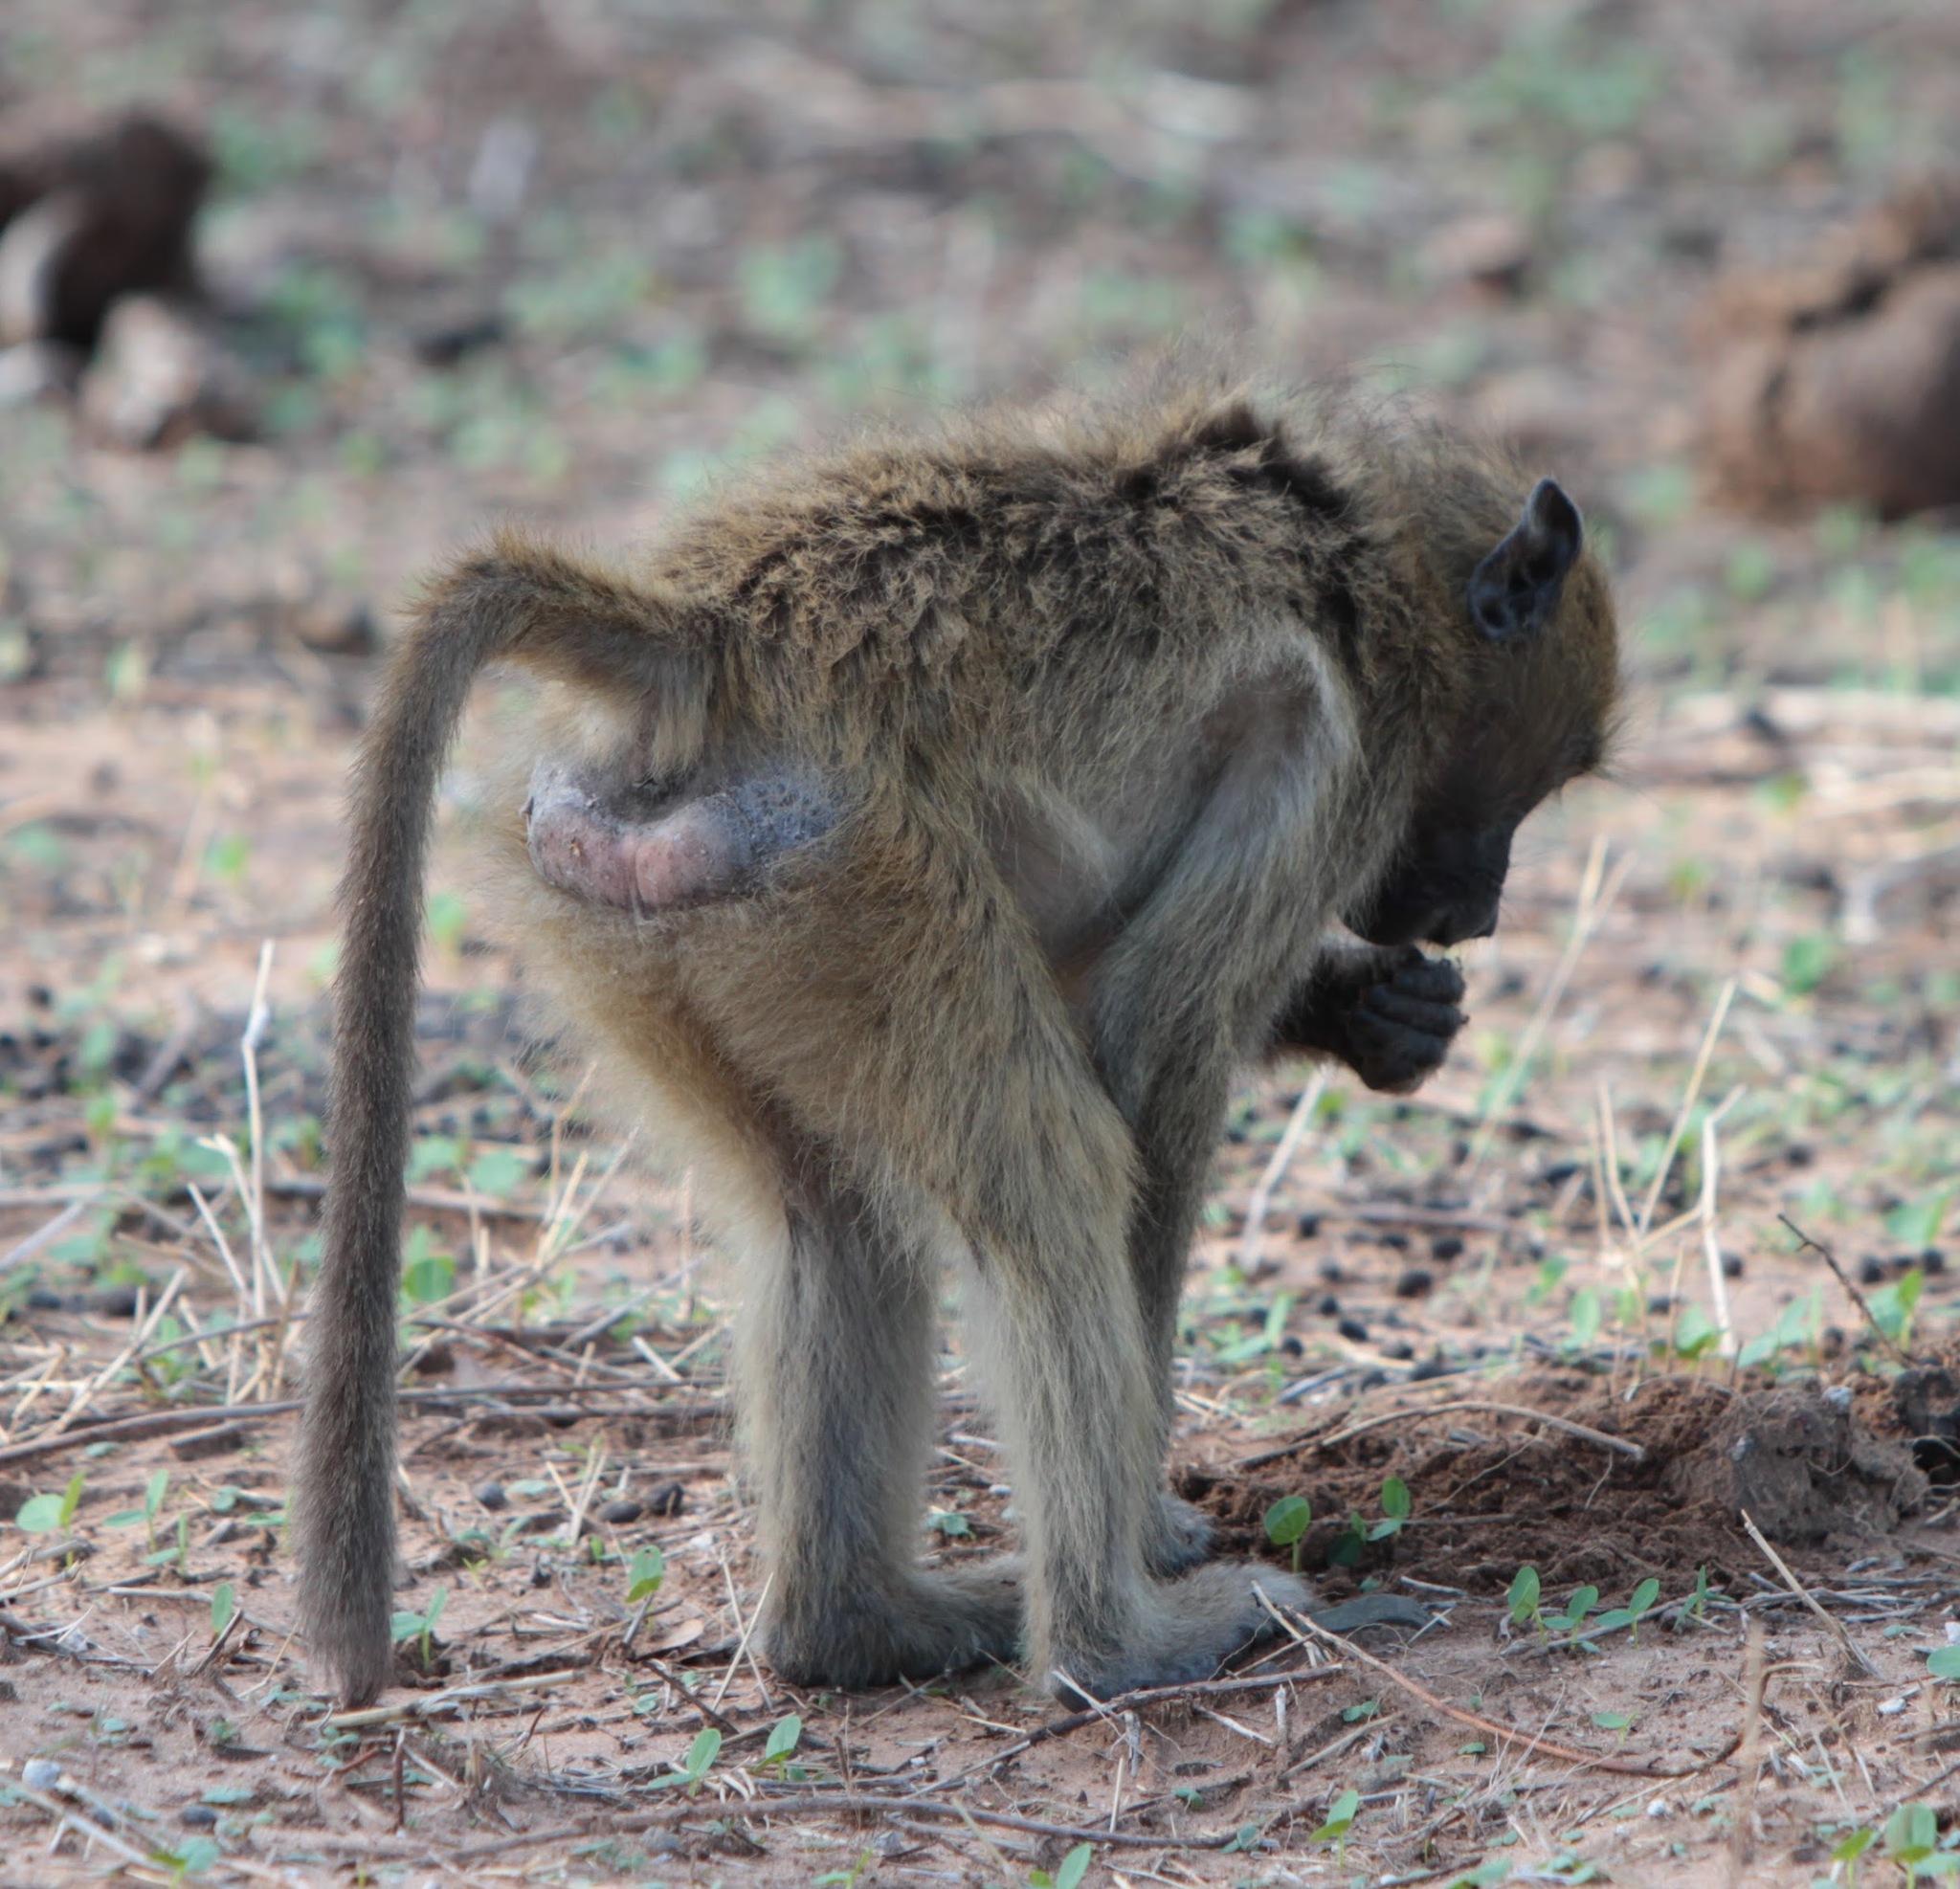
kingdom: Animalia
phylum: Chordata
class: Mammalia
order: Primates
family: Cercopithecidae
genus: Papio
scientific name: Papio ursinus
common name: Chacma baboon
